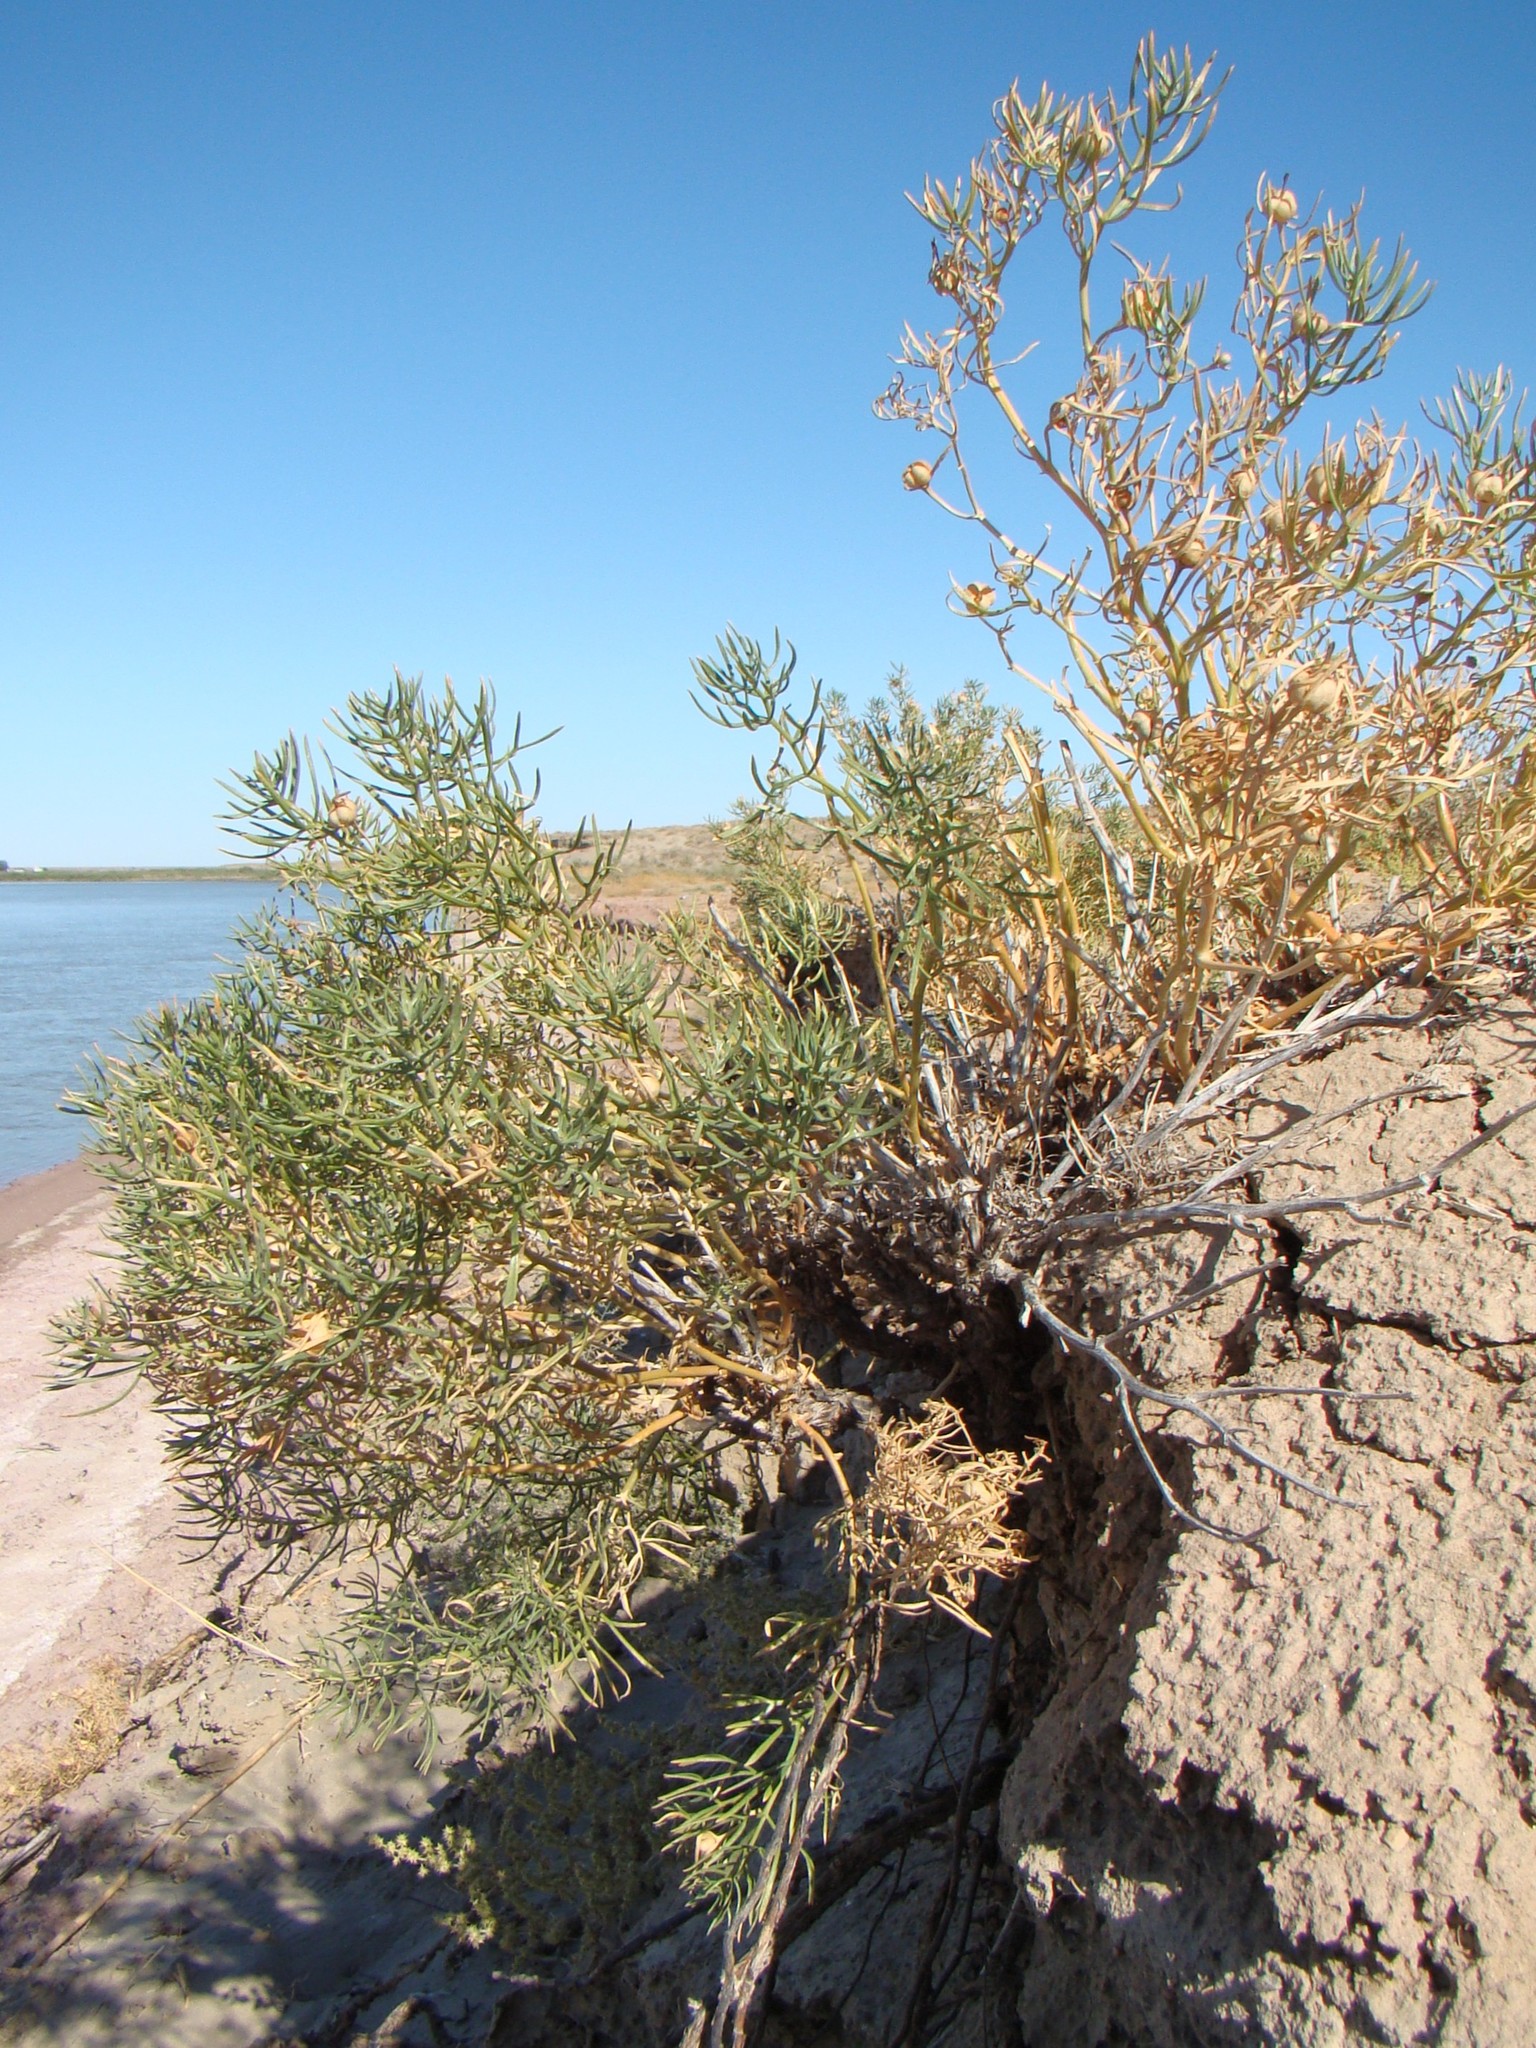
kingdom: Plantae
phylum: Tracheophyta
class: Magnoliopsida
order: Sapindales
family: Tetradiclidaceae
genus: Peganum
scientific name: Peganum harmala
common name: Harmal peganum
